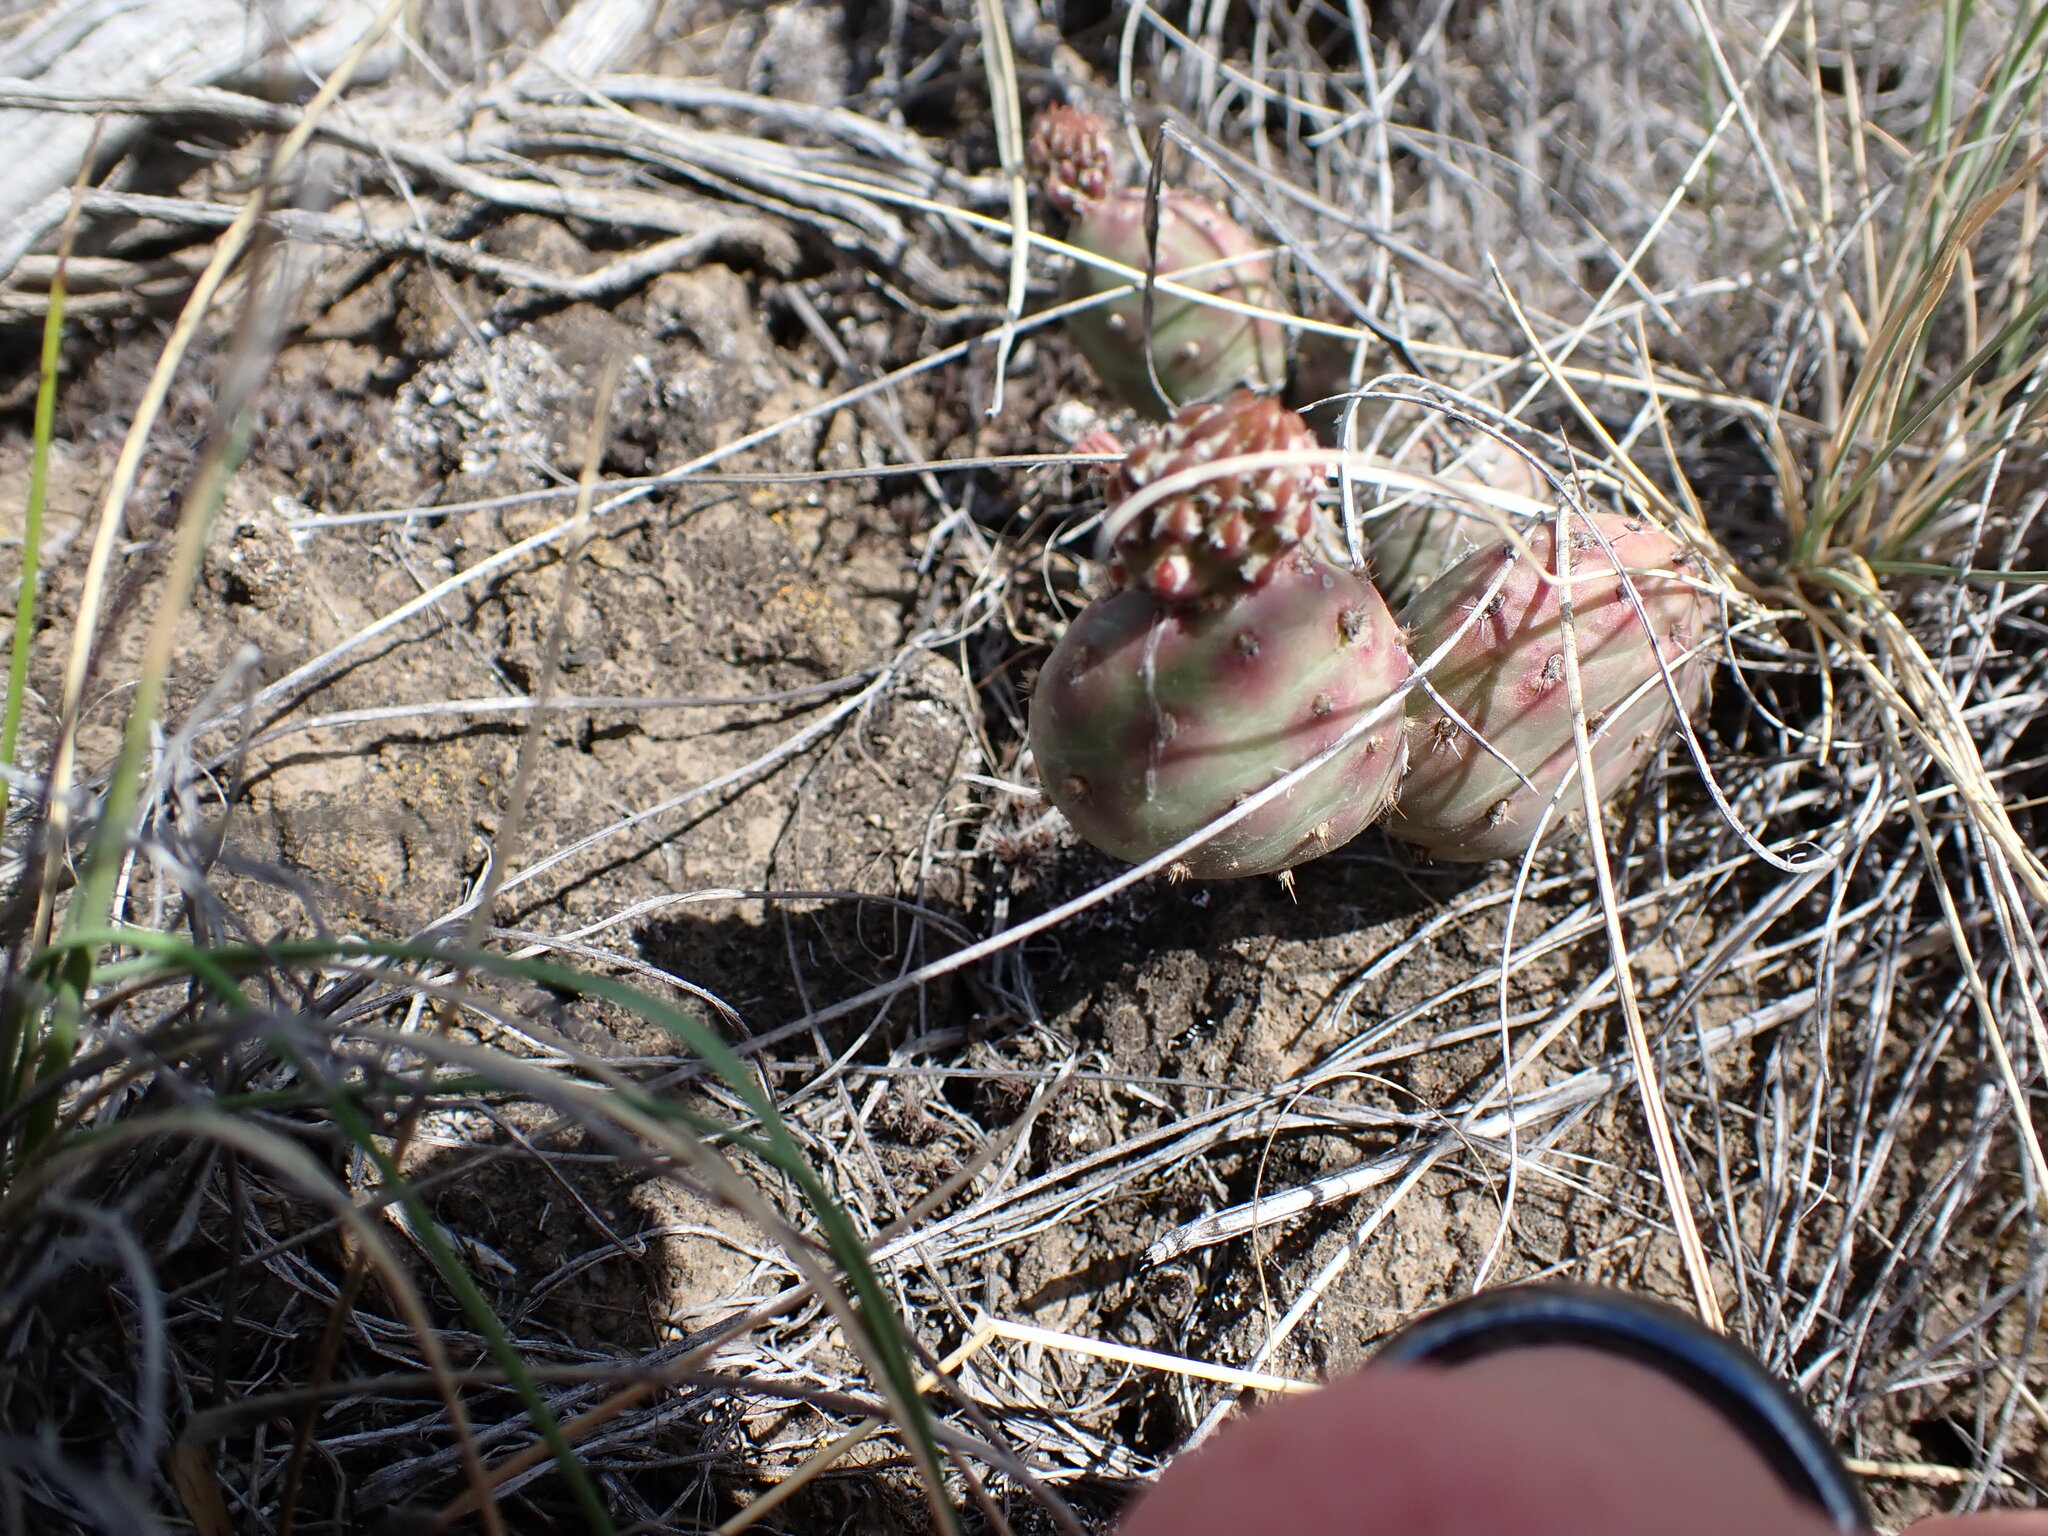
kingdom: Plantae
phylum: Tracheophyta
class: Magnoliopsida
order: Caryophyllales
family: Cactaceae
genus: Opuntia
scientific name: Opuntia fragilis
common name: Brittle cactus
